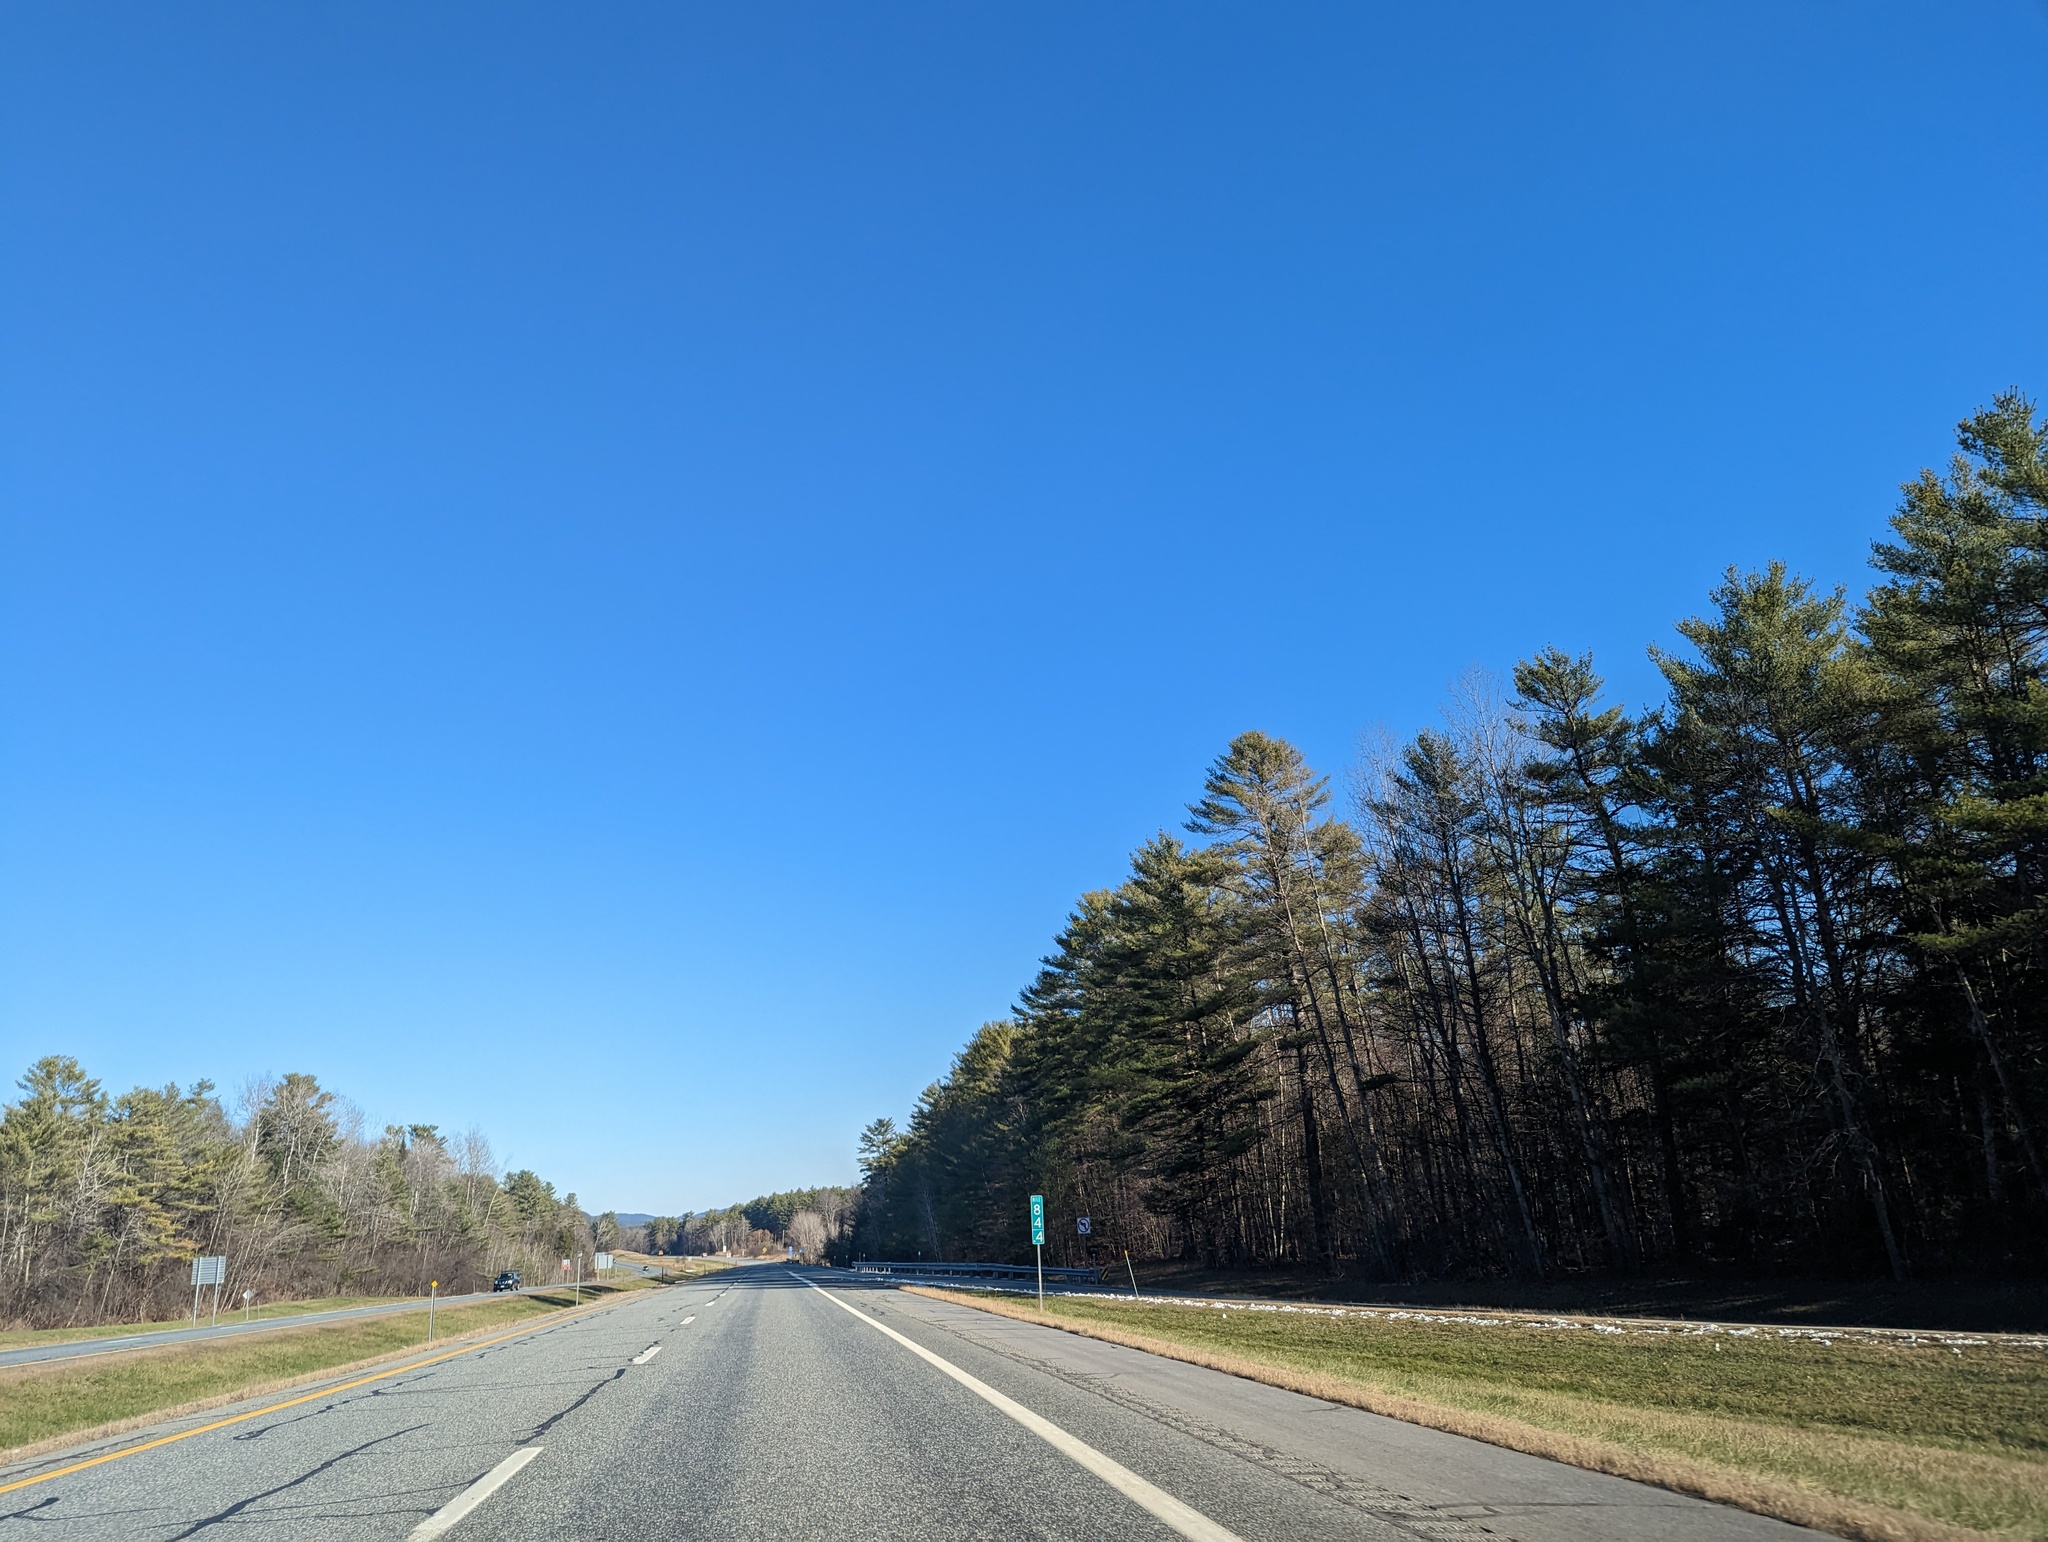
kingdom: Plantae
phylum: Tracheophyta
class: Pinopsida
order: Pinales
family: Pinaceae
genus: Pinus
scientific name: Pinus strobus
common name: Weymouth pine
